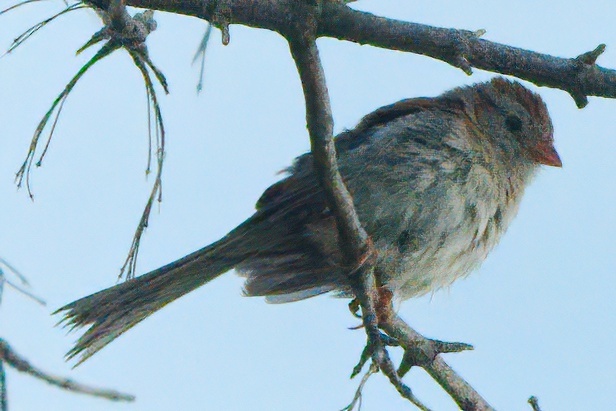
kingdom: Animalia
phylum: Chordata
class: Aves
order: Passeriformes
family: Passerellidae
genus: Spizella
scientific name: Spizella pusilla
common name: Field sparrow
